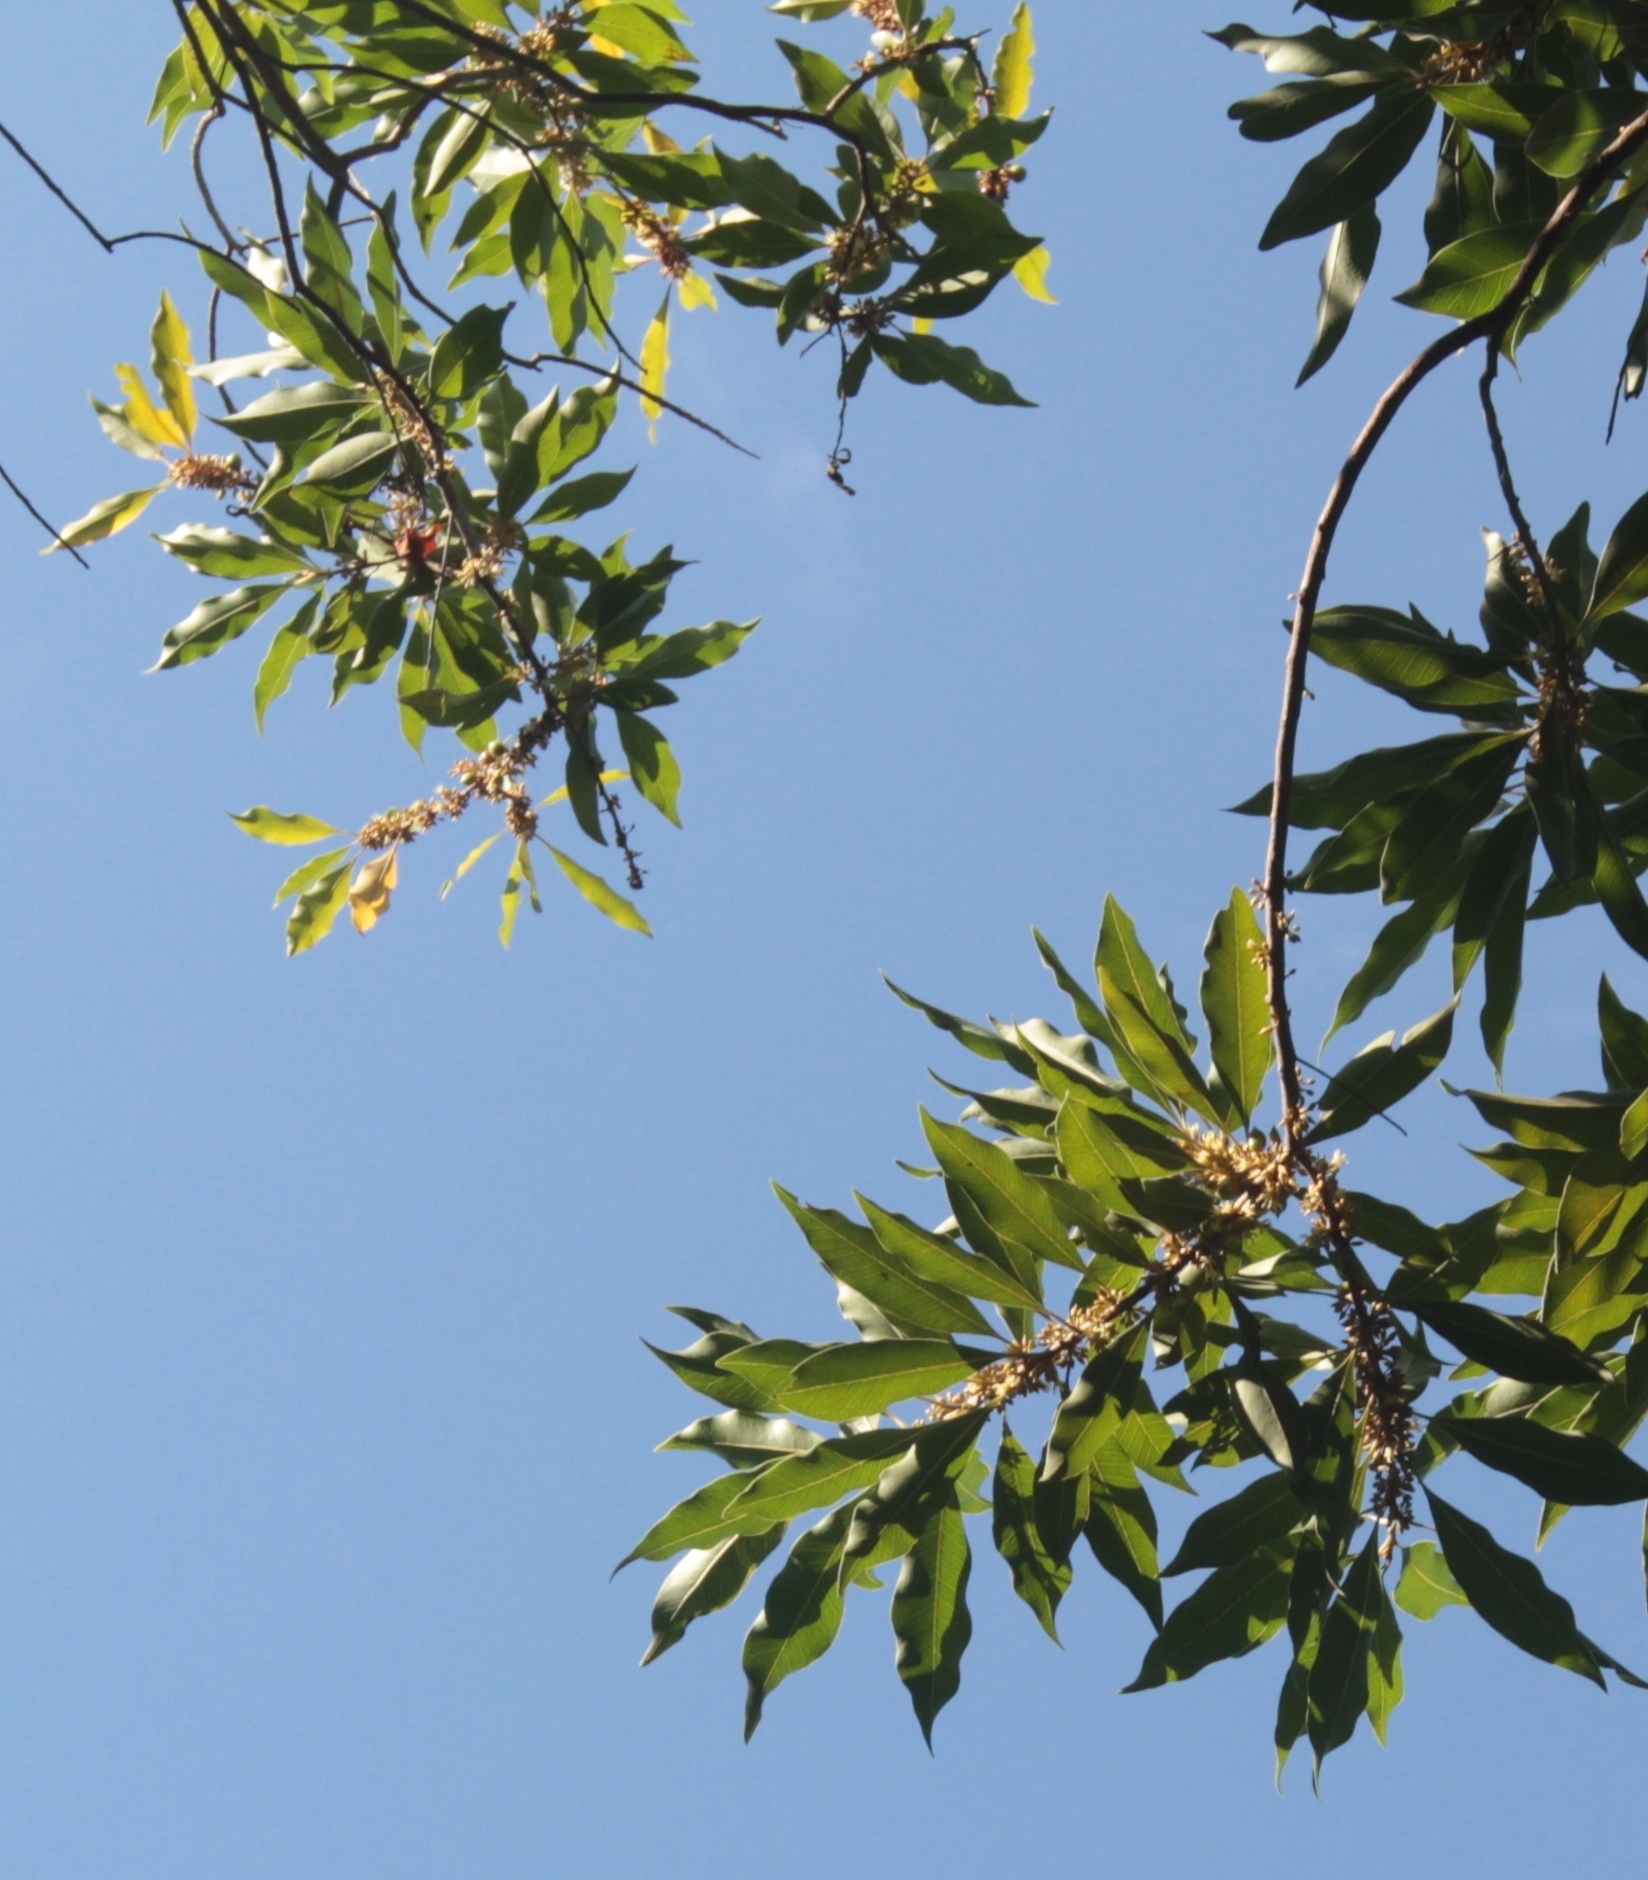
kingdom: Plantae
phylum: Tracheophyta
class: Magnoliopsida
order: Ericales
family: Sapotaceae
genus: Sideroxylon
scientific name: Sideroxylon salicifolium
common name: White bully
